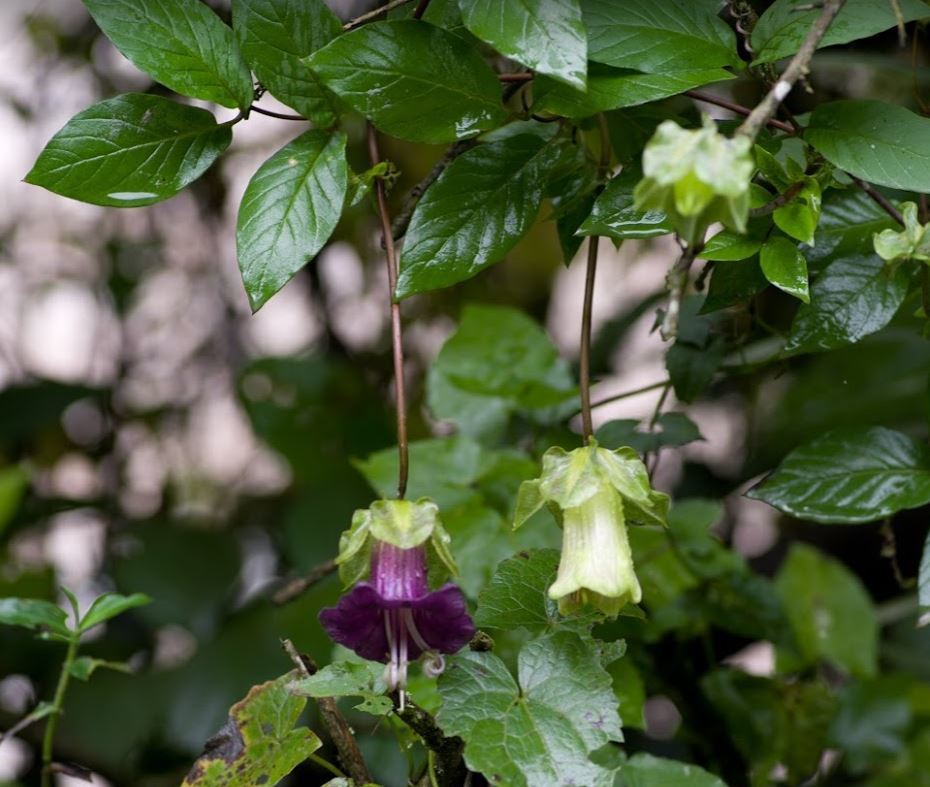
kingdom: Plantae
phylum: Tracheophyta
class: Magnoliopsida
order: Ericales
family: Polemoniaceae
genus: Cobaea
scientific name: Cobaea scandens
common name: Cup-and-saucer-vine
